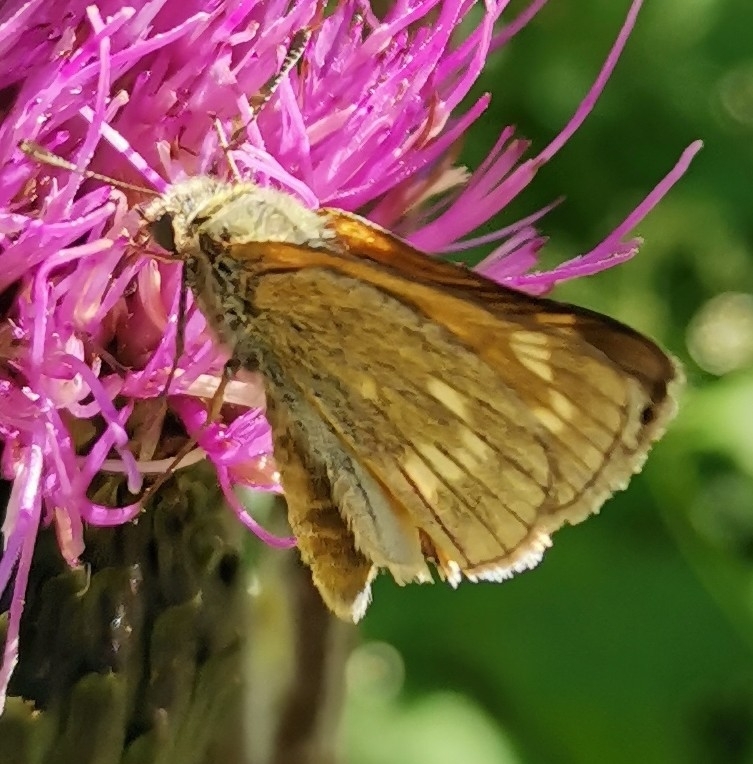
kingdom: Animalia
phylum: Arthropoda
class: Insecta
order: Lepidoptera
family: Hesperiidae
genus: Ochlodes
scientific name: Ochlodes venata
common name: Large skipper
